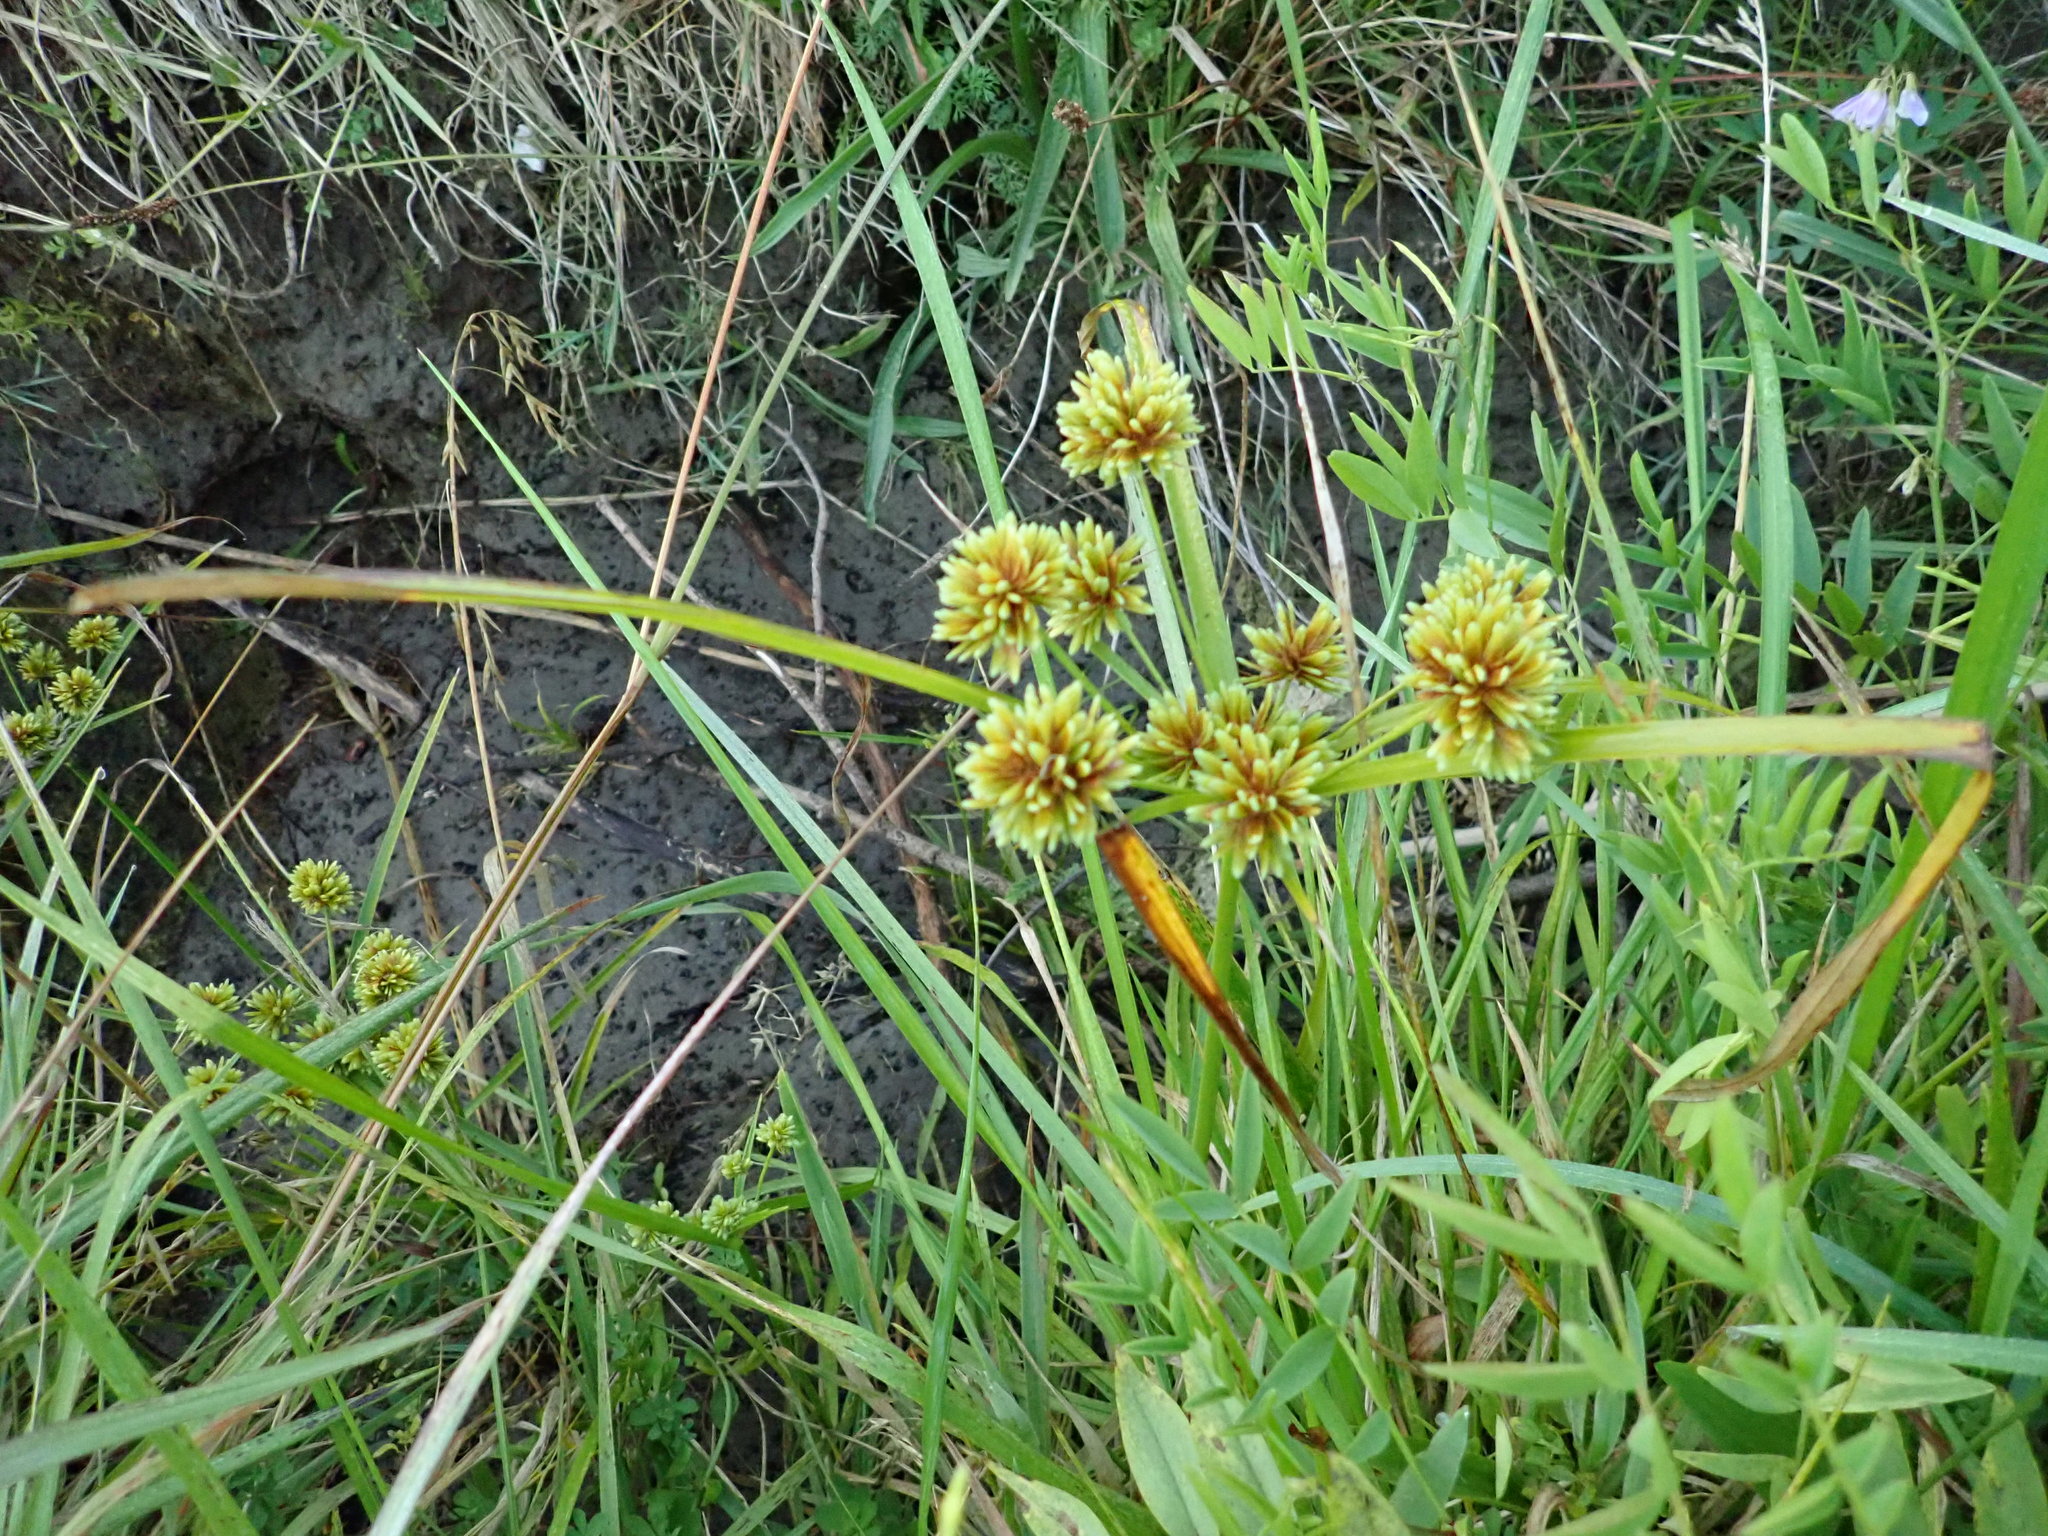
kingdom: Plantae
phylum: Tracheophyta
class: Liliopsida
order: Poales
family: Cyperaceae
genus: Cyperus
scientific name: Cyperus eragrostis
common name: Tall flatsedge
